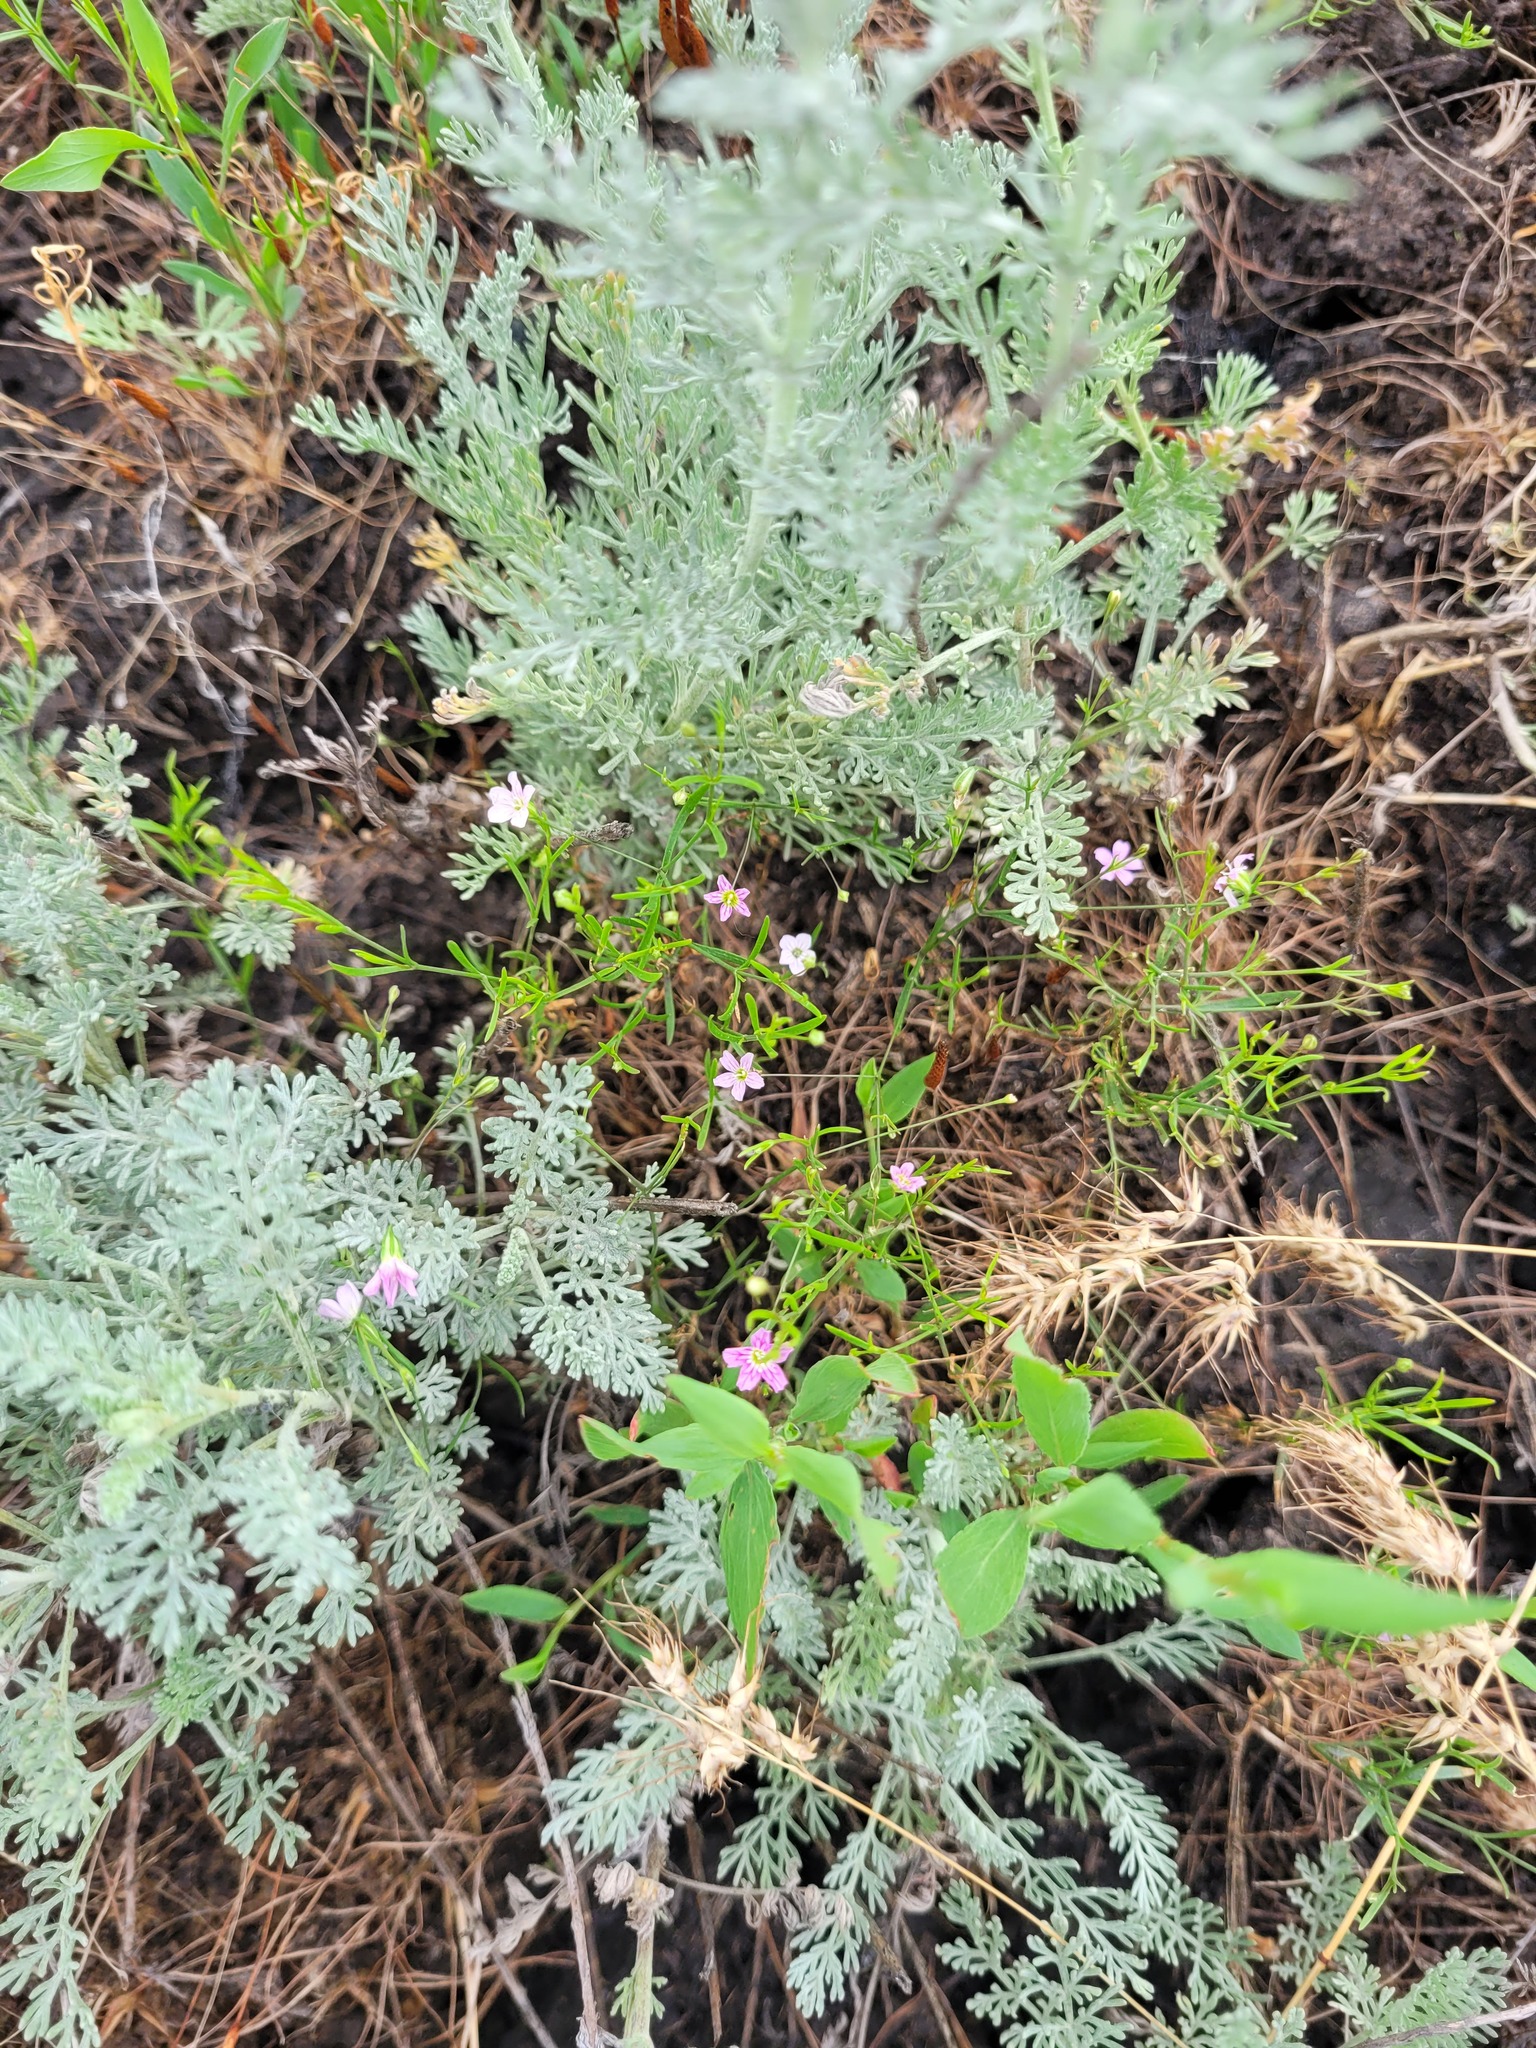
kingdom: Plantae
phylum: Tracheophyta
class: Magnoliopsida
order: Caryophyllales
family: Caryophyllaceae
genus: Psammophiliella
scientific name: Psammophiliella muralis
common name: Cushion baby's-breath
